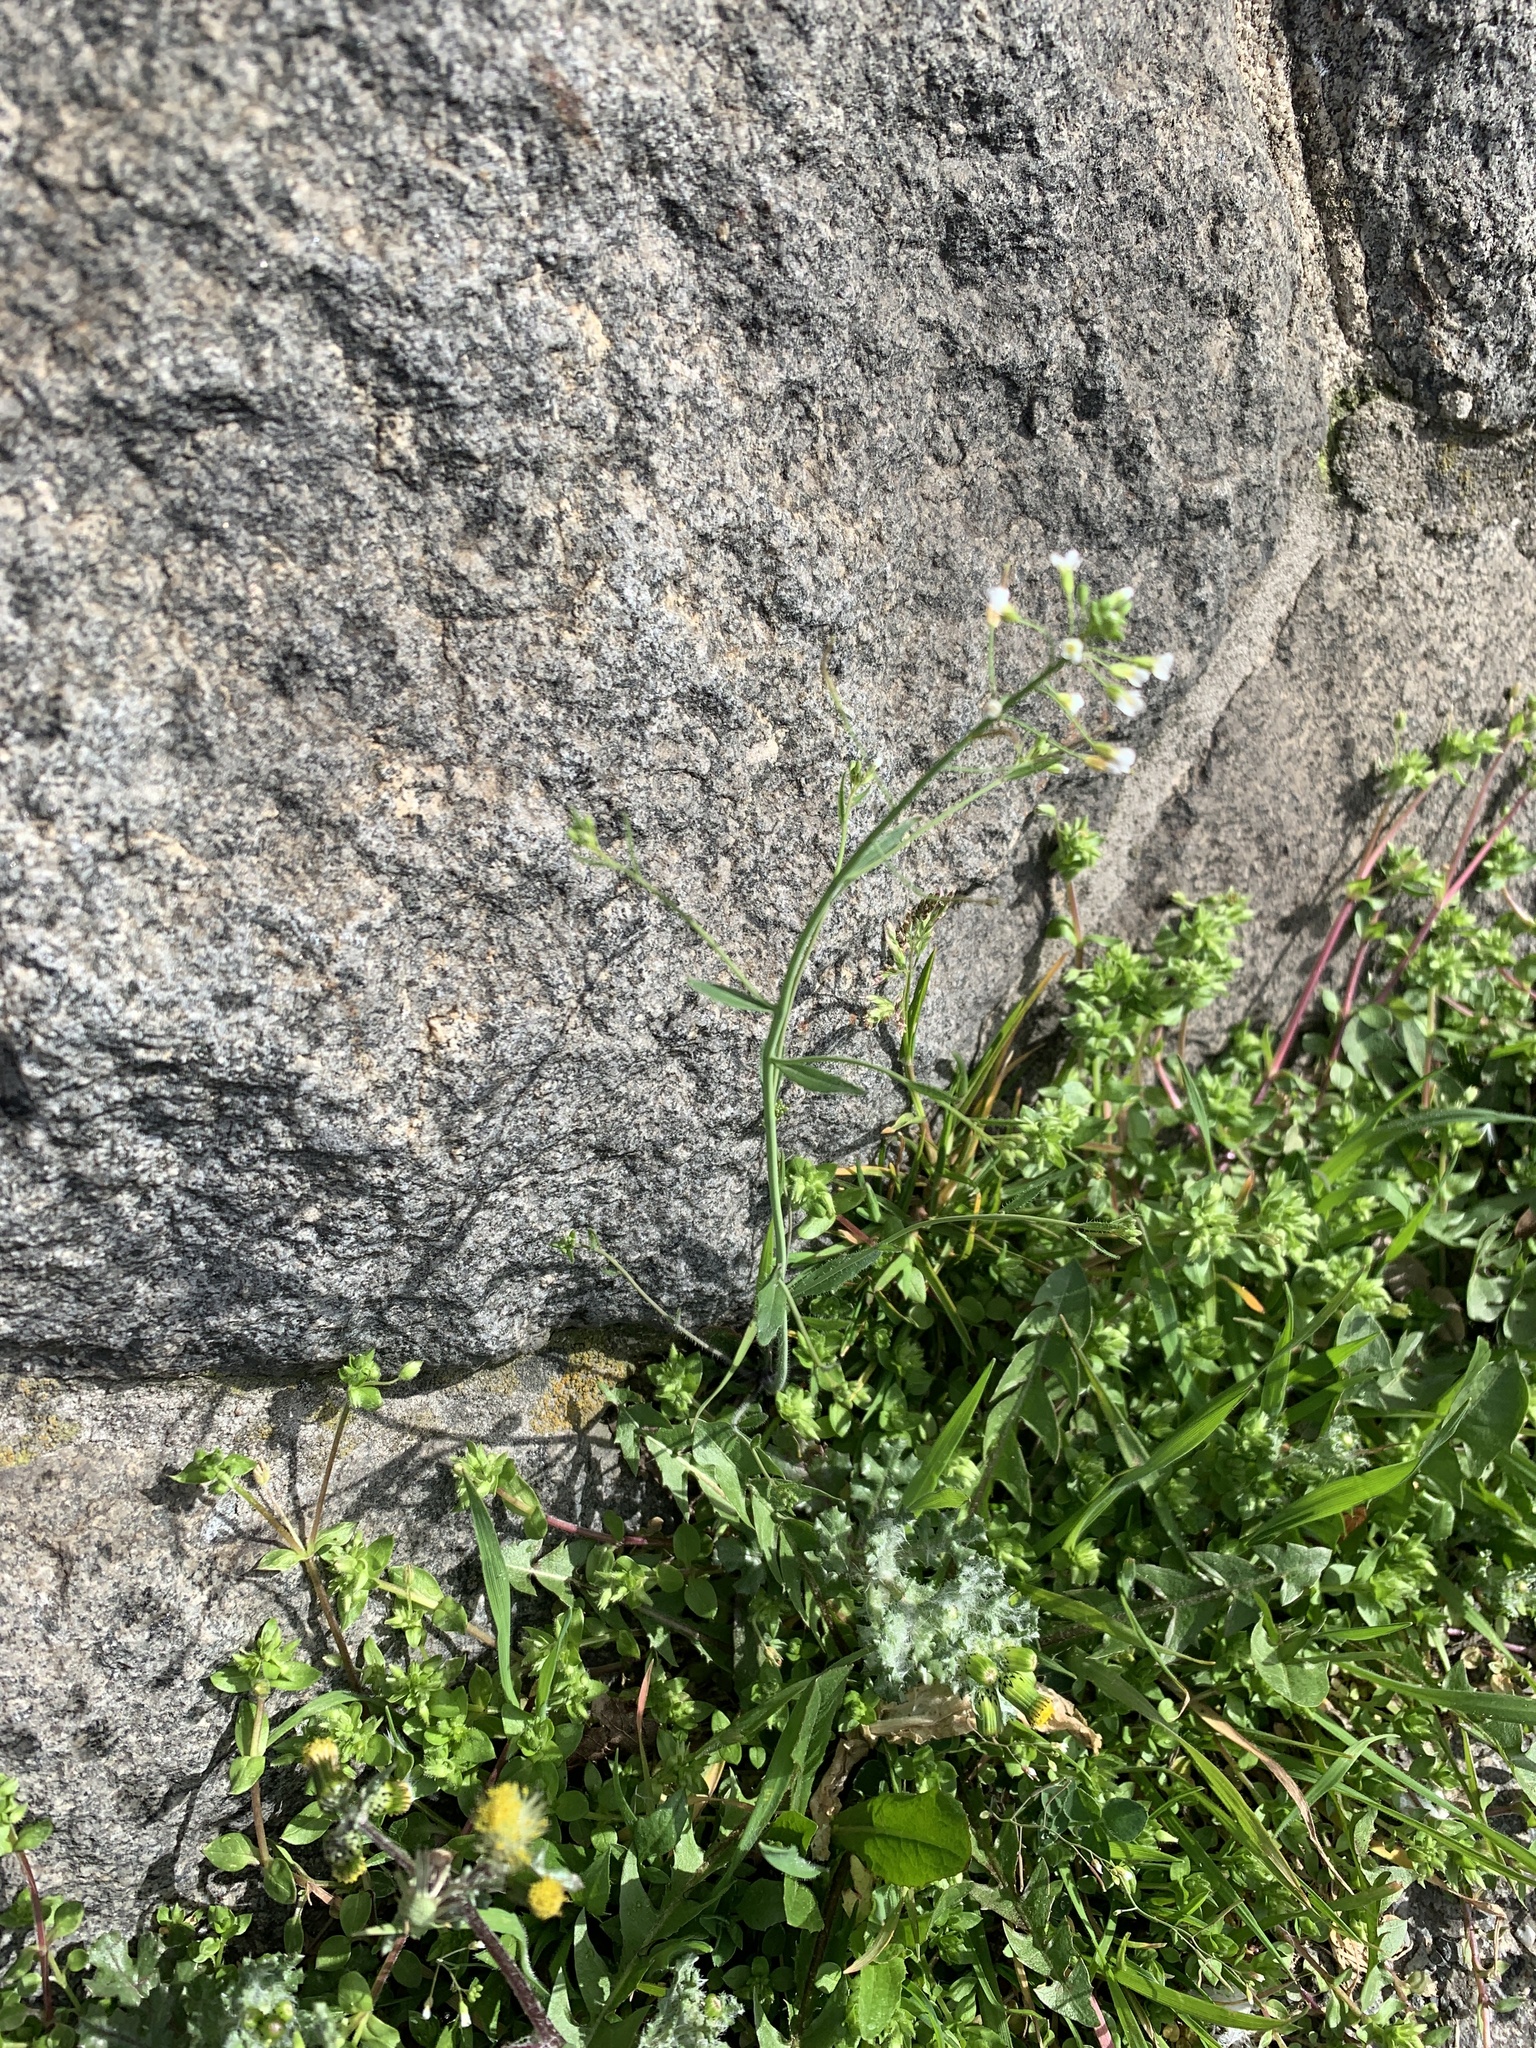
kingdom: Plantae
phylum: Tracheophyta
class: Magnoliopsida
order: Brassicales
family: Brassicaceae
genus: Capsella
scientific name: Capsella bursa-pastoris
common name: Shepherd's purse
